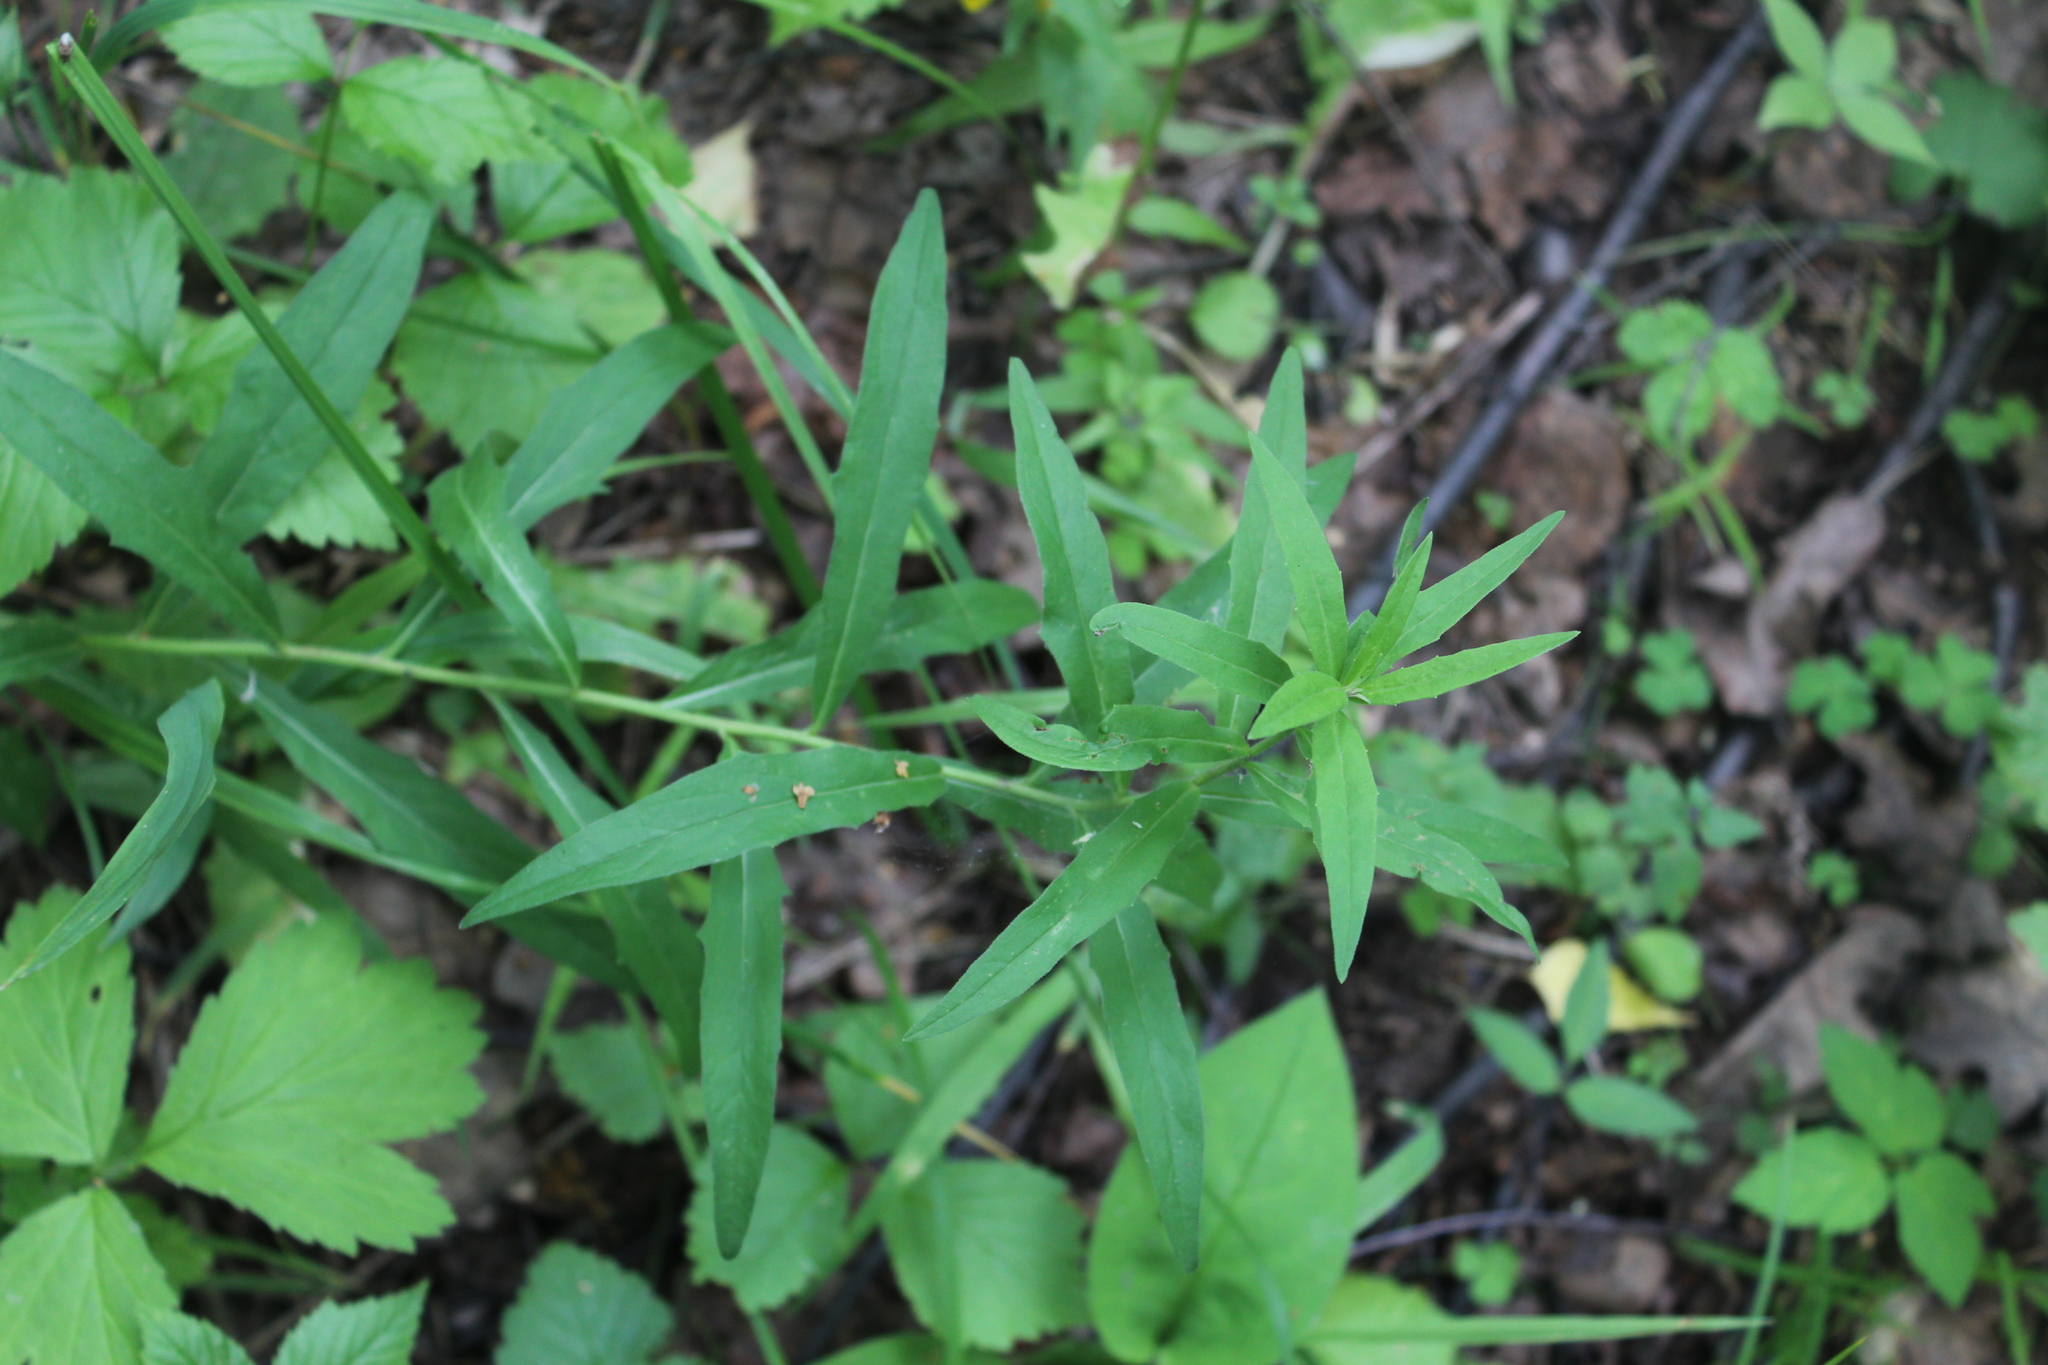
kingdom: Plantae
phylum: Tracheophyta
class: Magnoliopsida
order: Asterales
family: Asteraceae
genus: Hieracium
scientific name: Hieracium umbellatum
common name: Northern hawkweed
